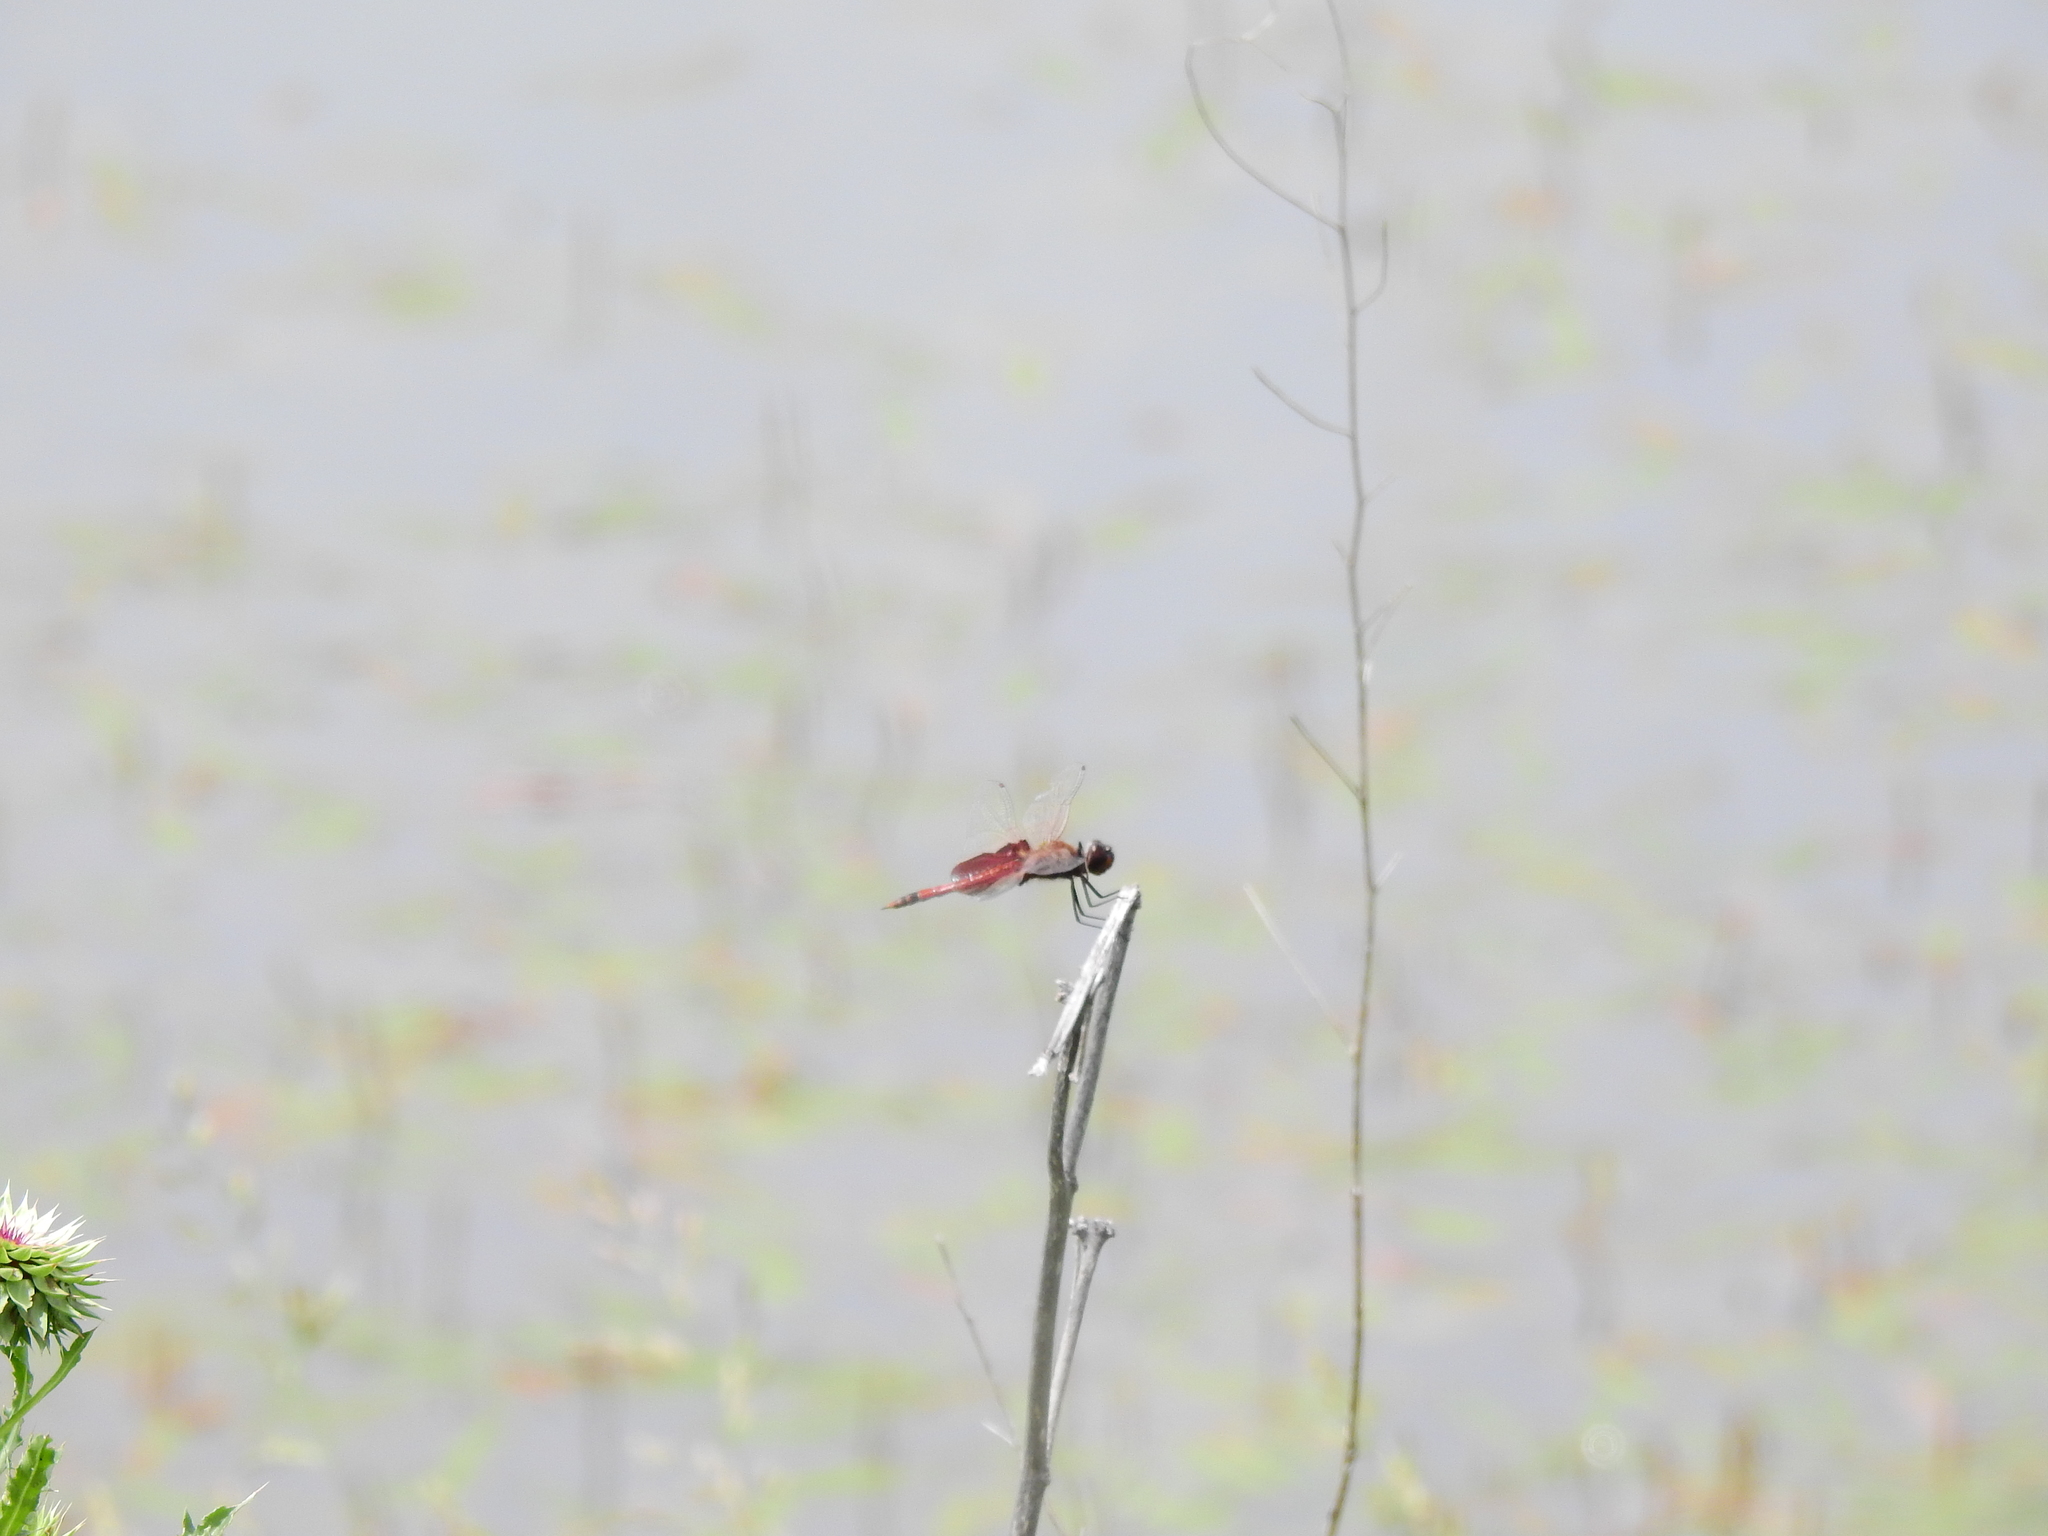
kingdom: Animalia
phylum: Arthropoda
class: Insecta
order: Odonata
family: Libellulidae
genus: Tramea
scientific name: Tramea carolina
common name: Carolina saddlebags
